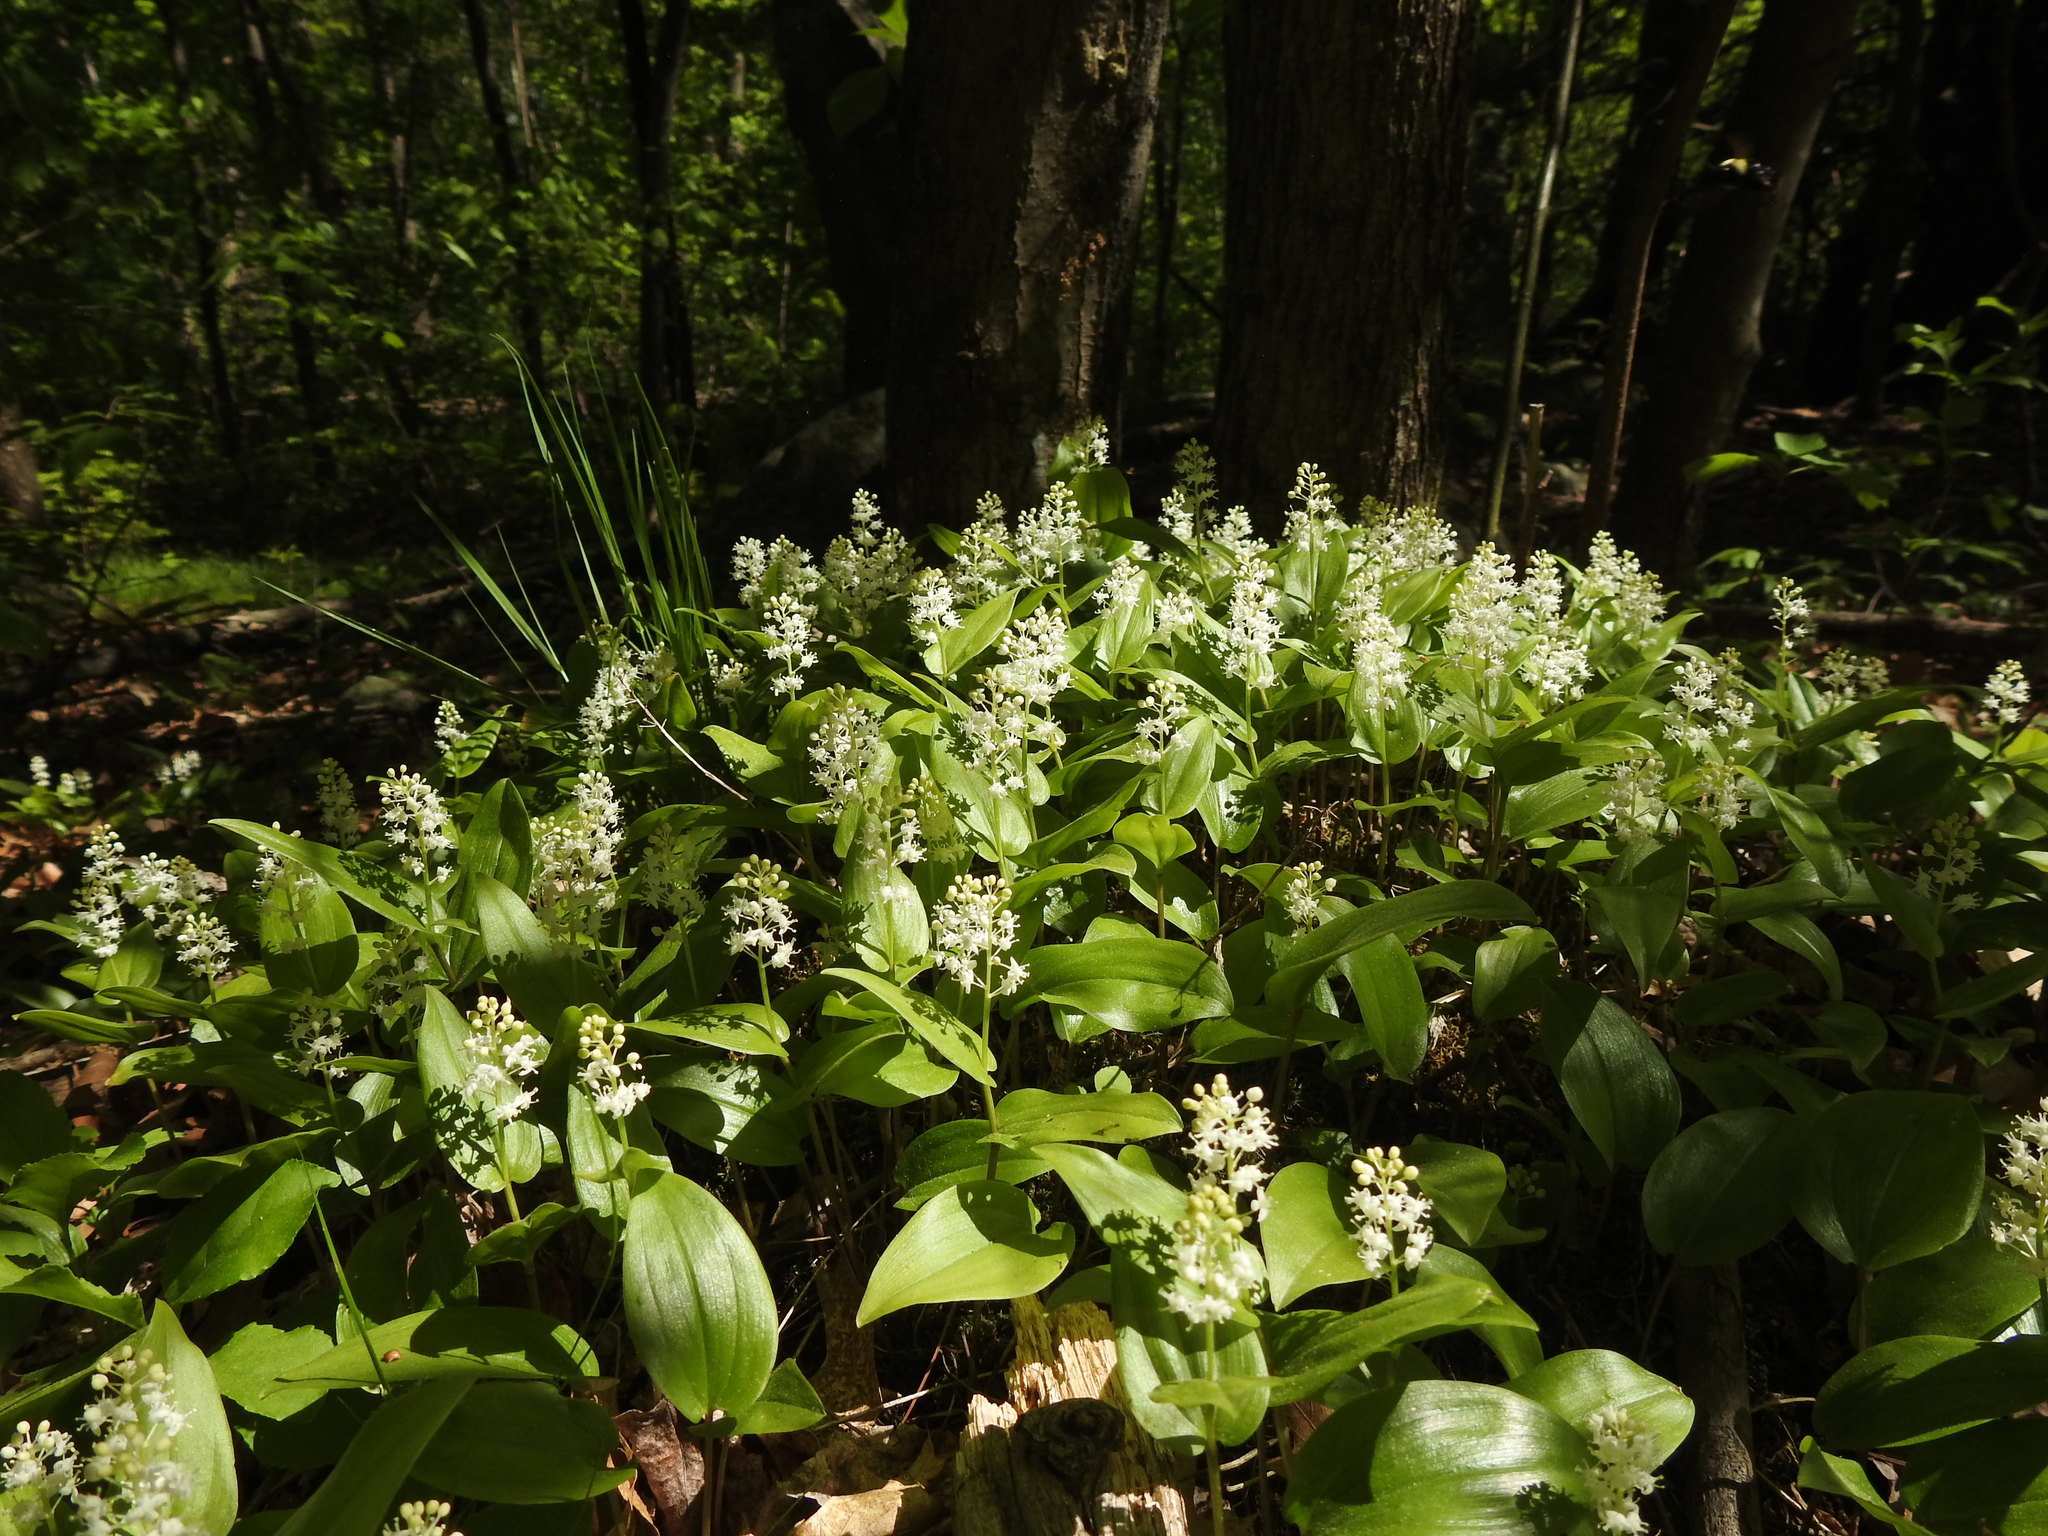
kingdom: Plantae
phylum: Tracheophyta
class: Liliopsida
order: Asparagales
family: Asparagaceae
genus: Maianthemum
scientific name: Maianthemum canadense
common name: False lily-of-the-valley
